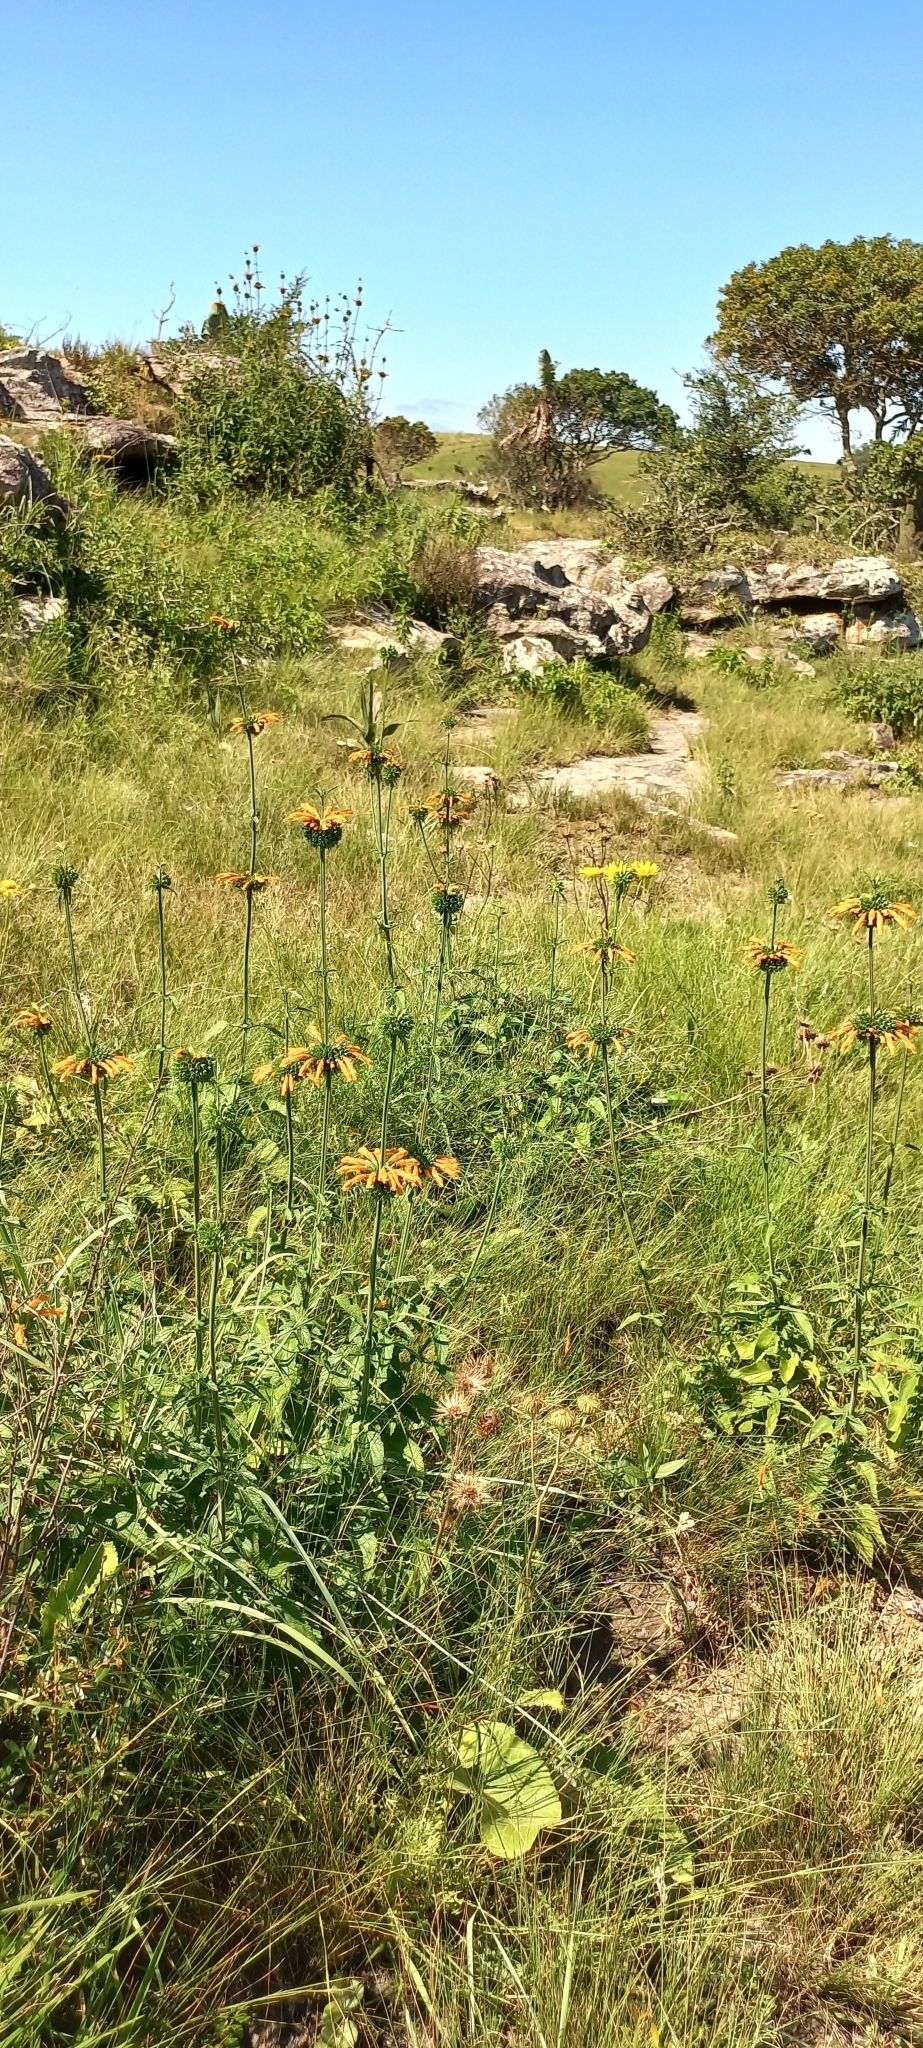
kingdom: Plantae
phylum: Tracheophyta
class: Magnoliopsida
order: Lamiales
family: Lamiaceae
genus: Leonotis
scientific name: Leonotis ocymifolia
